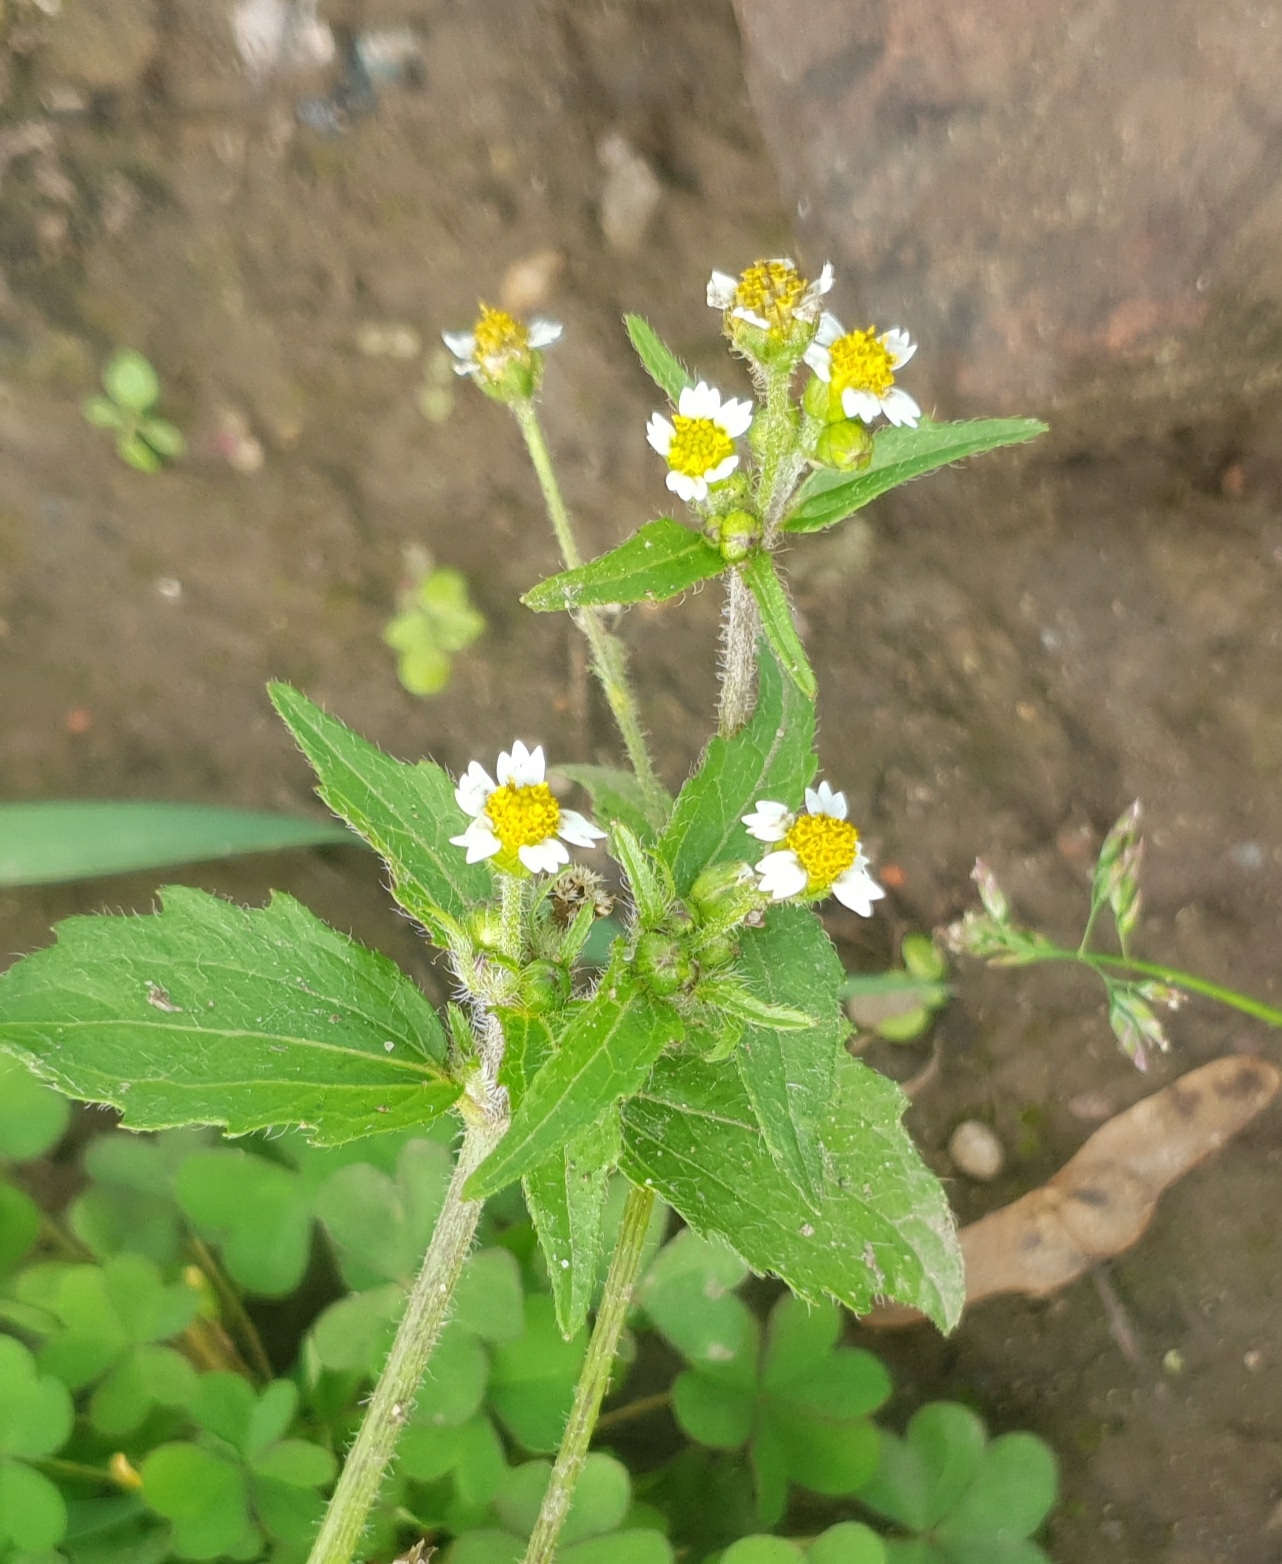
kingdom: Plantae
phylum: Tracheophyta
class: Magnoliopsida
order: Asterales
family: Asteraceae
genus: Galinsoga
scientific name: Galinsoga quadriradiata
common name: Shaggy soldier
